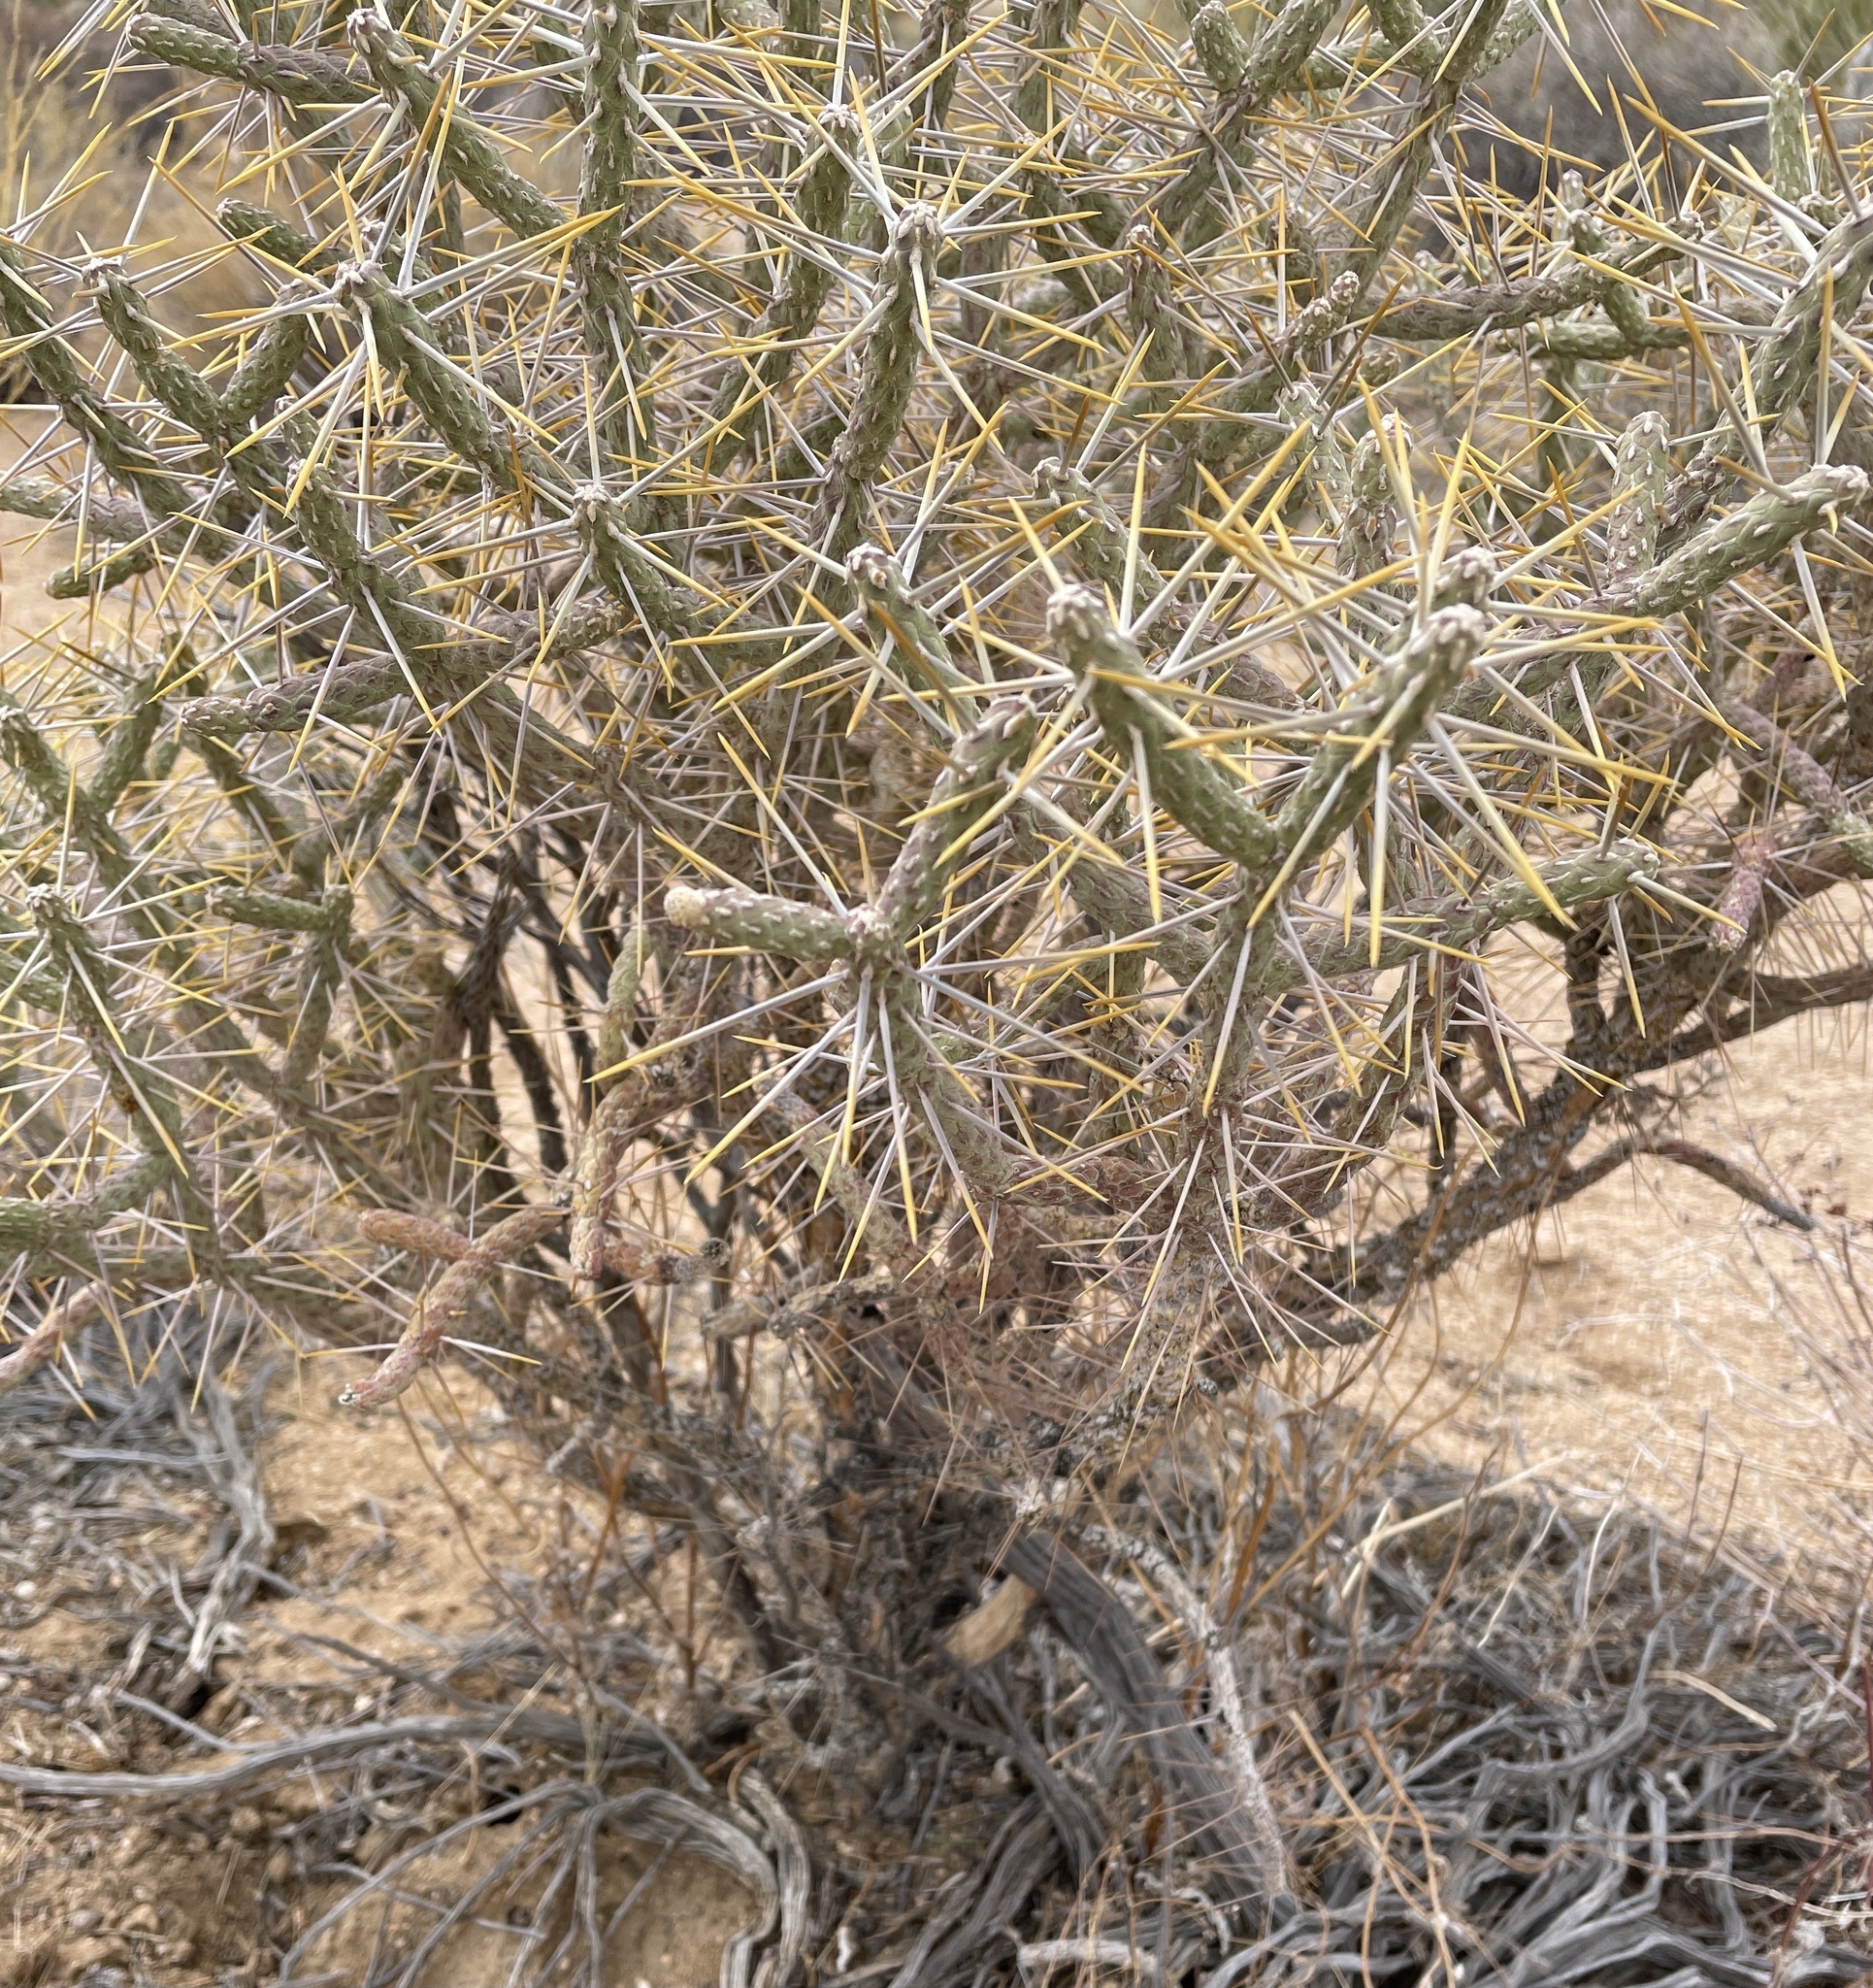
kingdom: Plantae
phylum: Tracheophyta
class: Magnoliopsida
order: Caryophyllales
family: Cactaceae
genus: Cylindropuntia
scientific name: Cylindropuntia ramosissima
